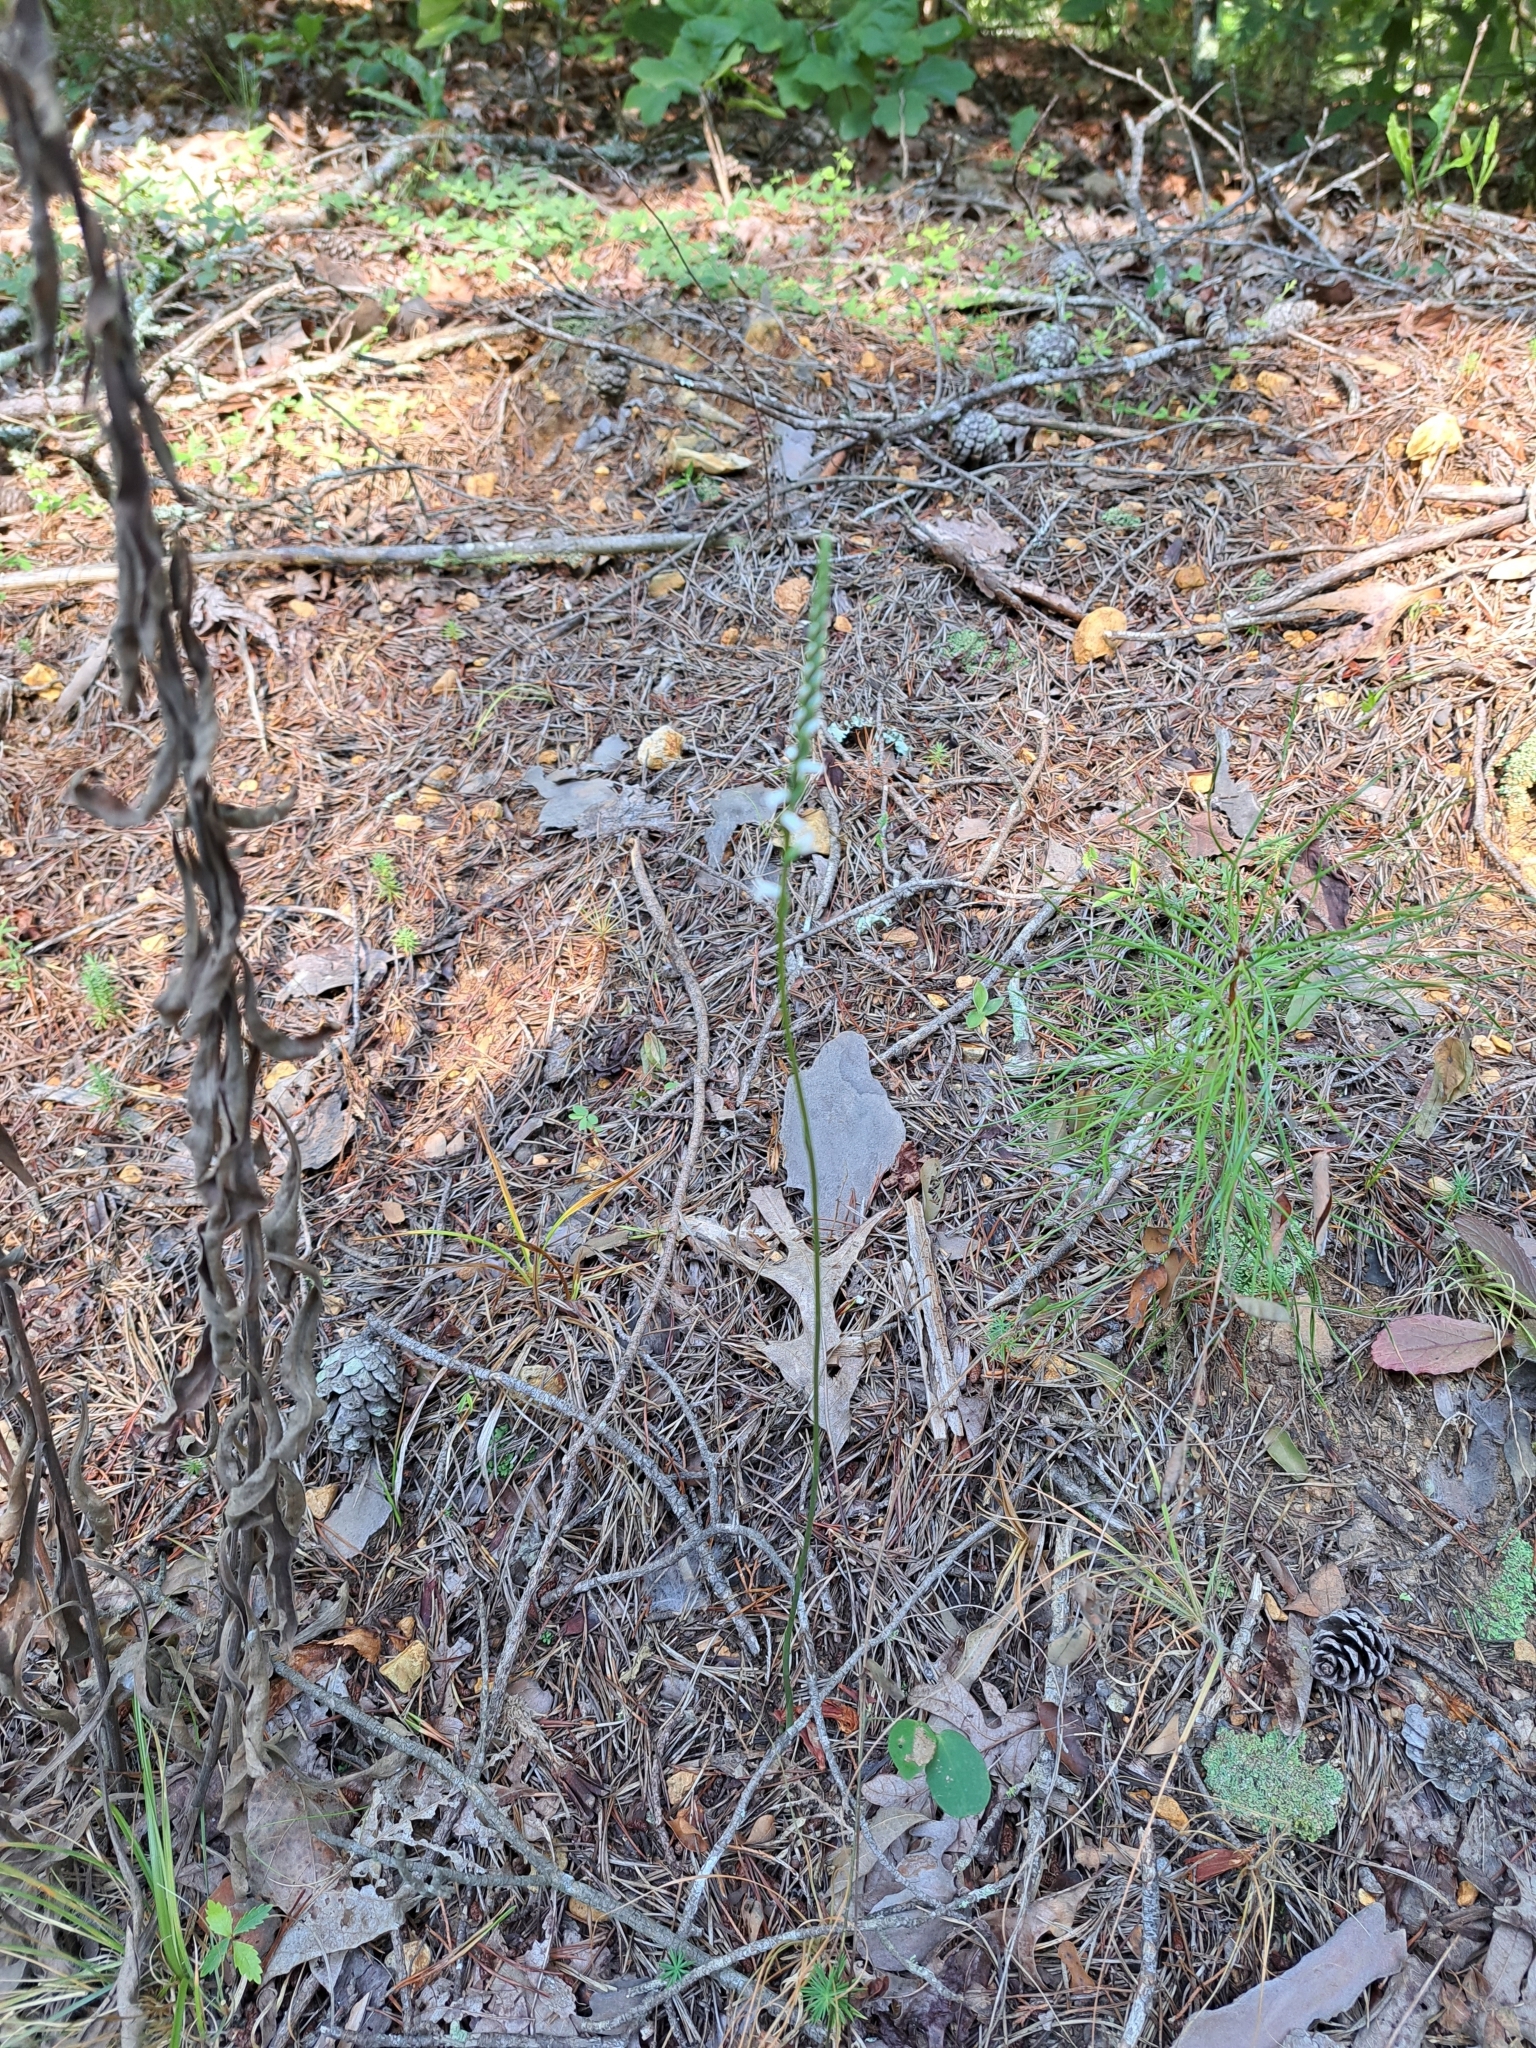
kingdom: Plantae
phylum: Tracheophyta
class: Liliopsida
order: Asparagales
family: Orchidaceae
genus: Spiranthes
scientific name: Spiranthes tuberosa
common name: Little ladies'-tresses
